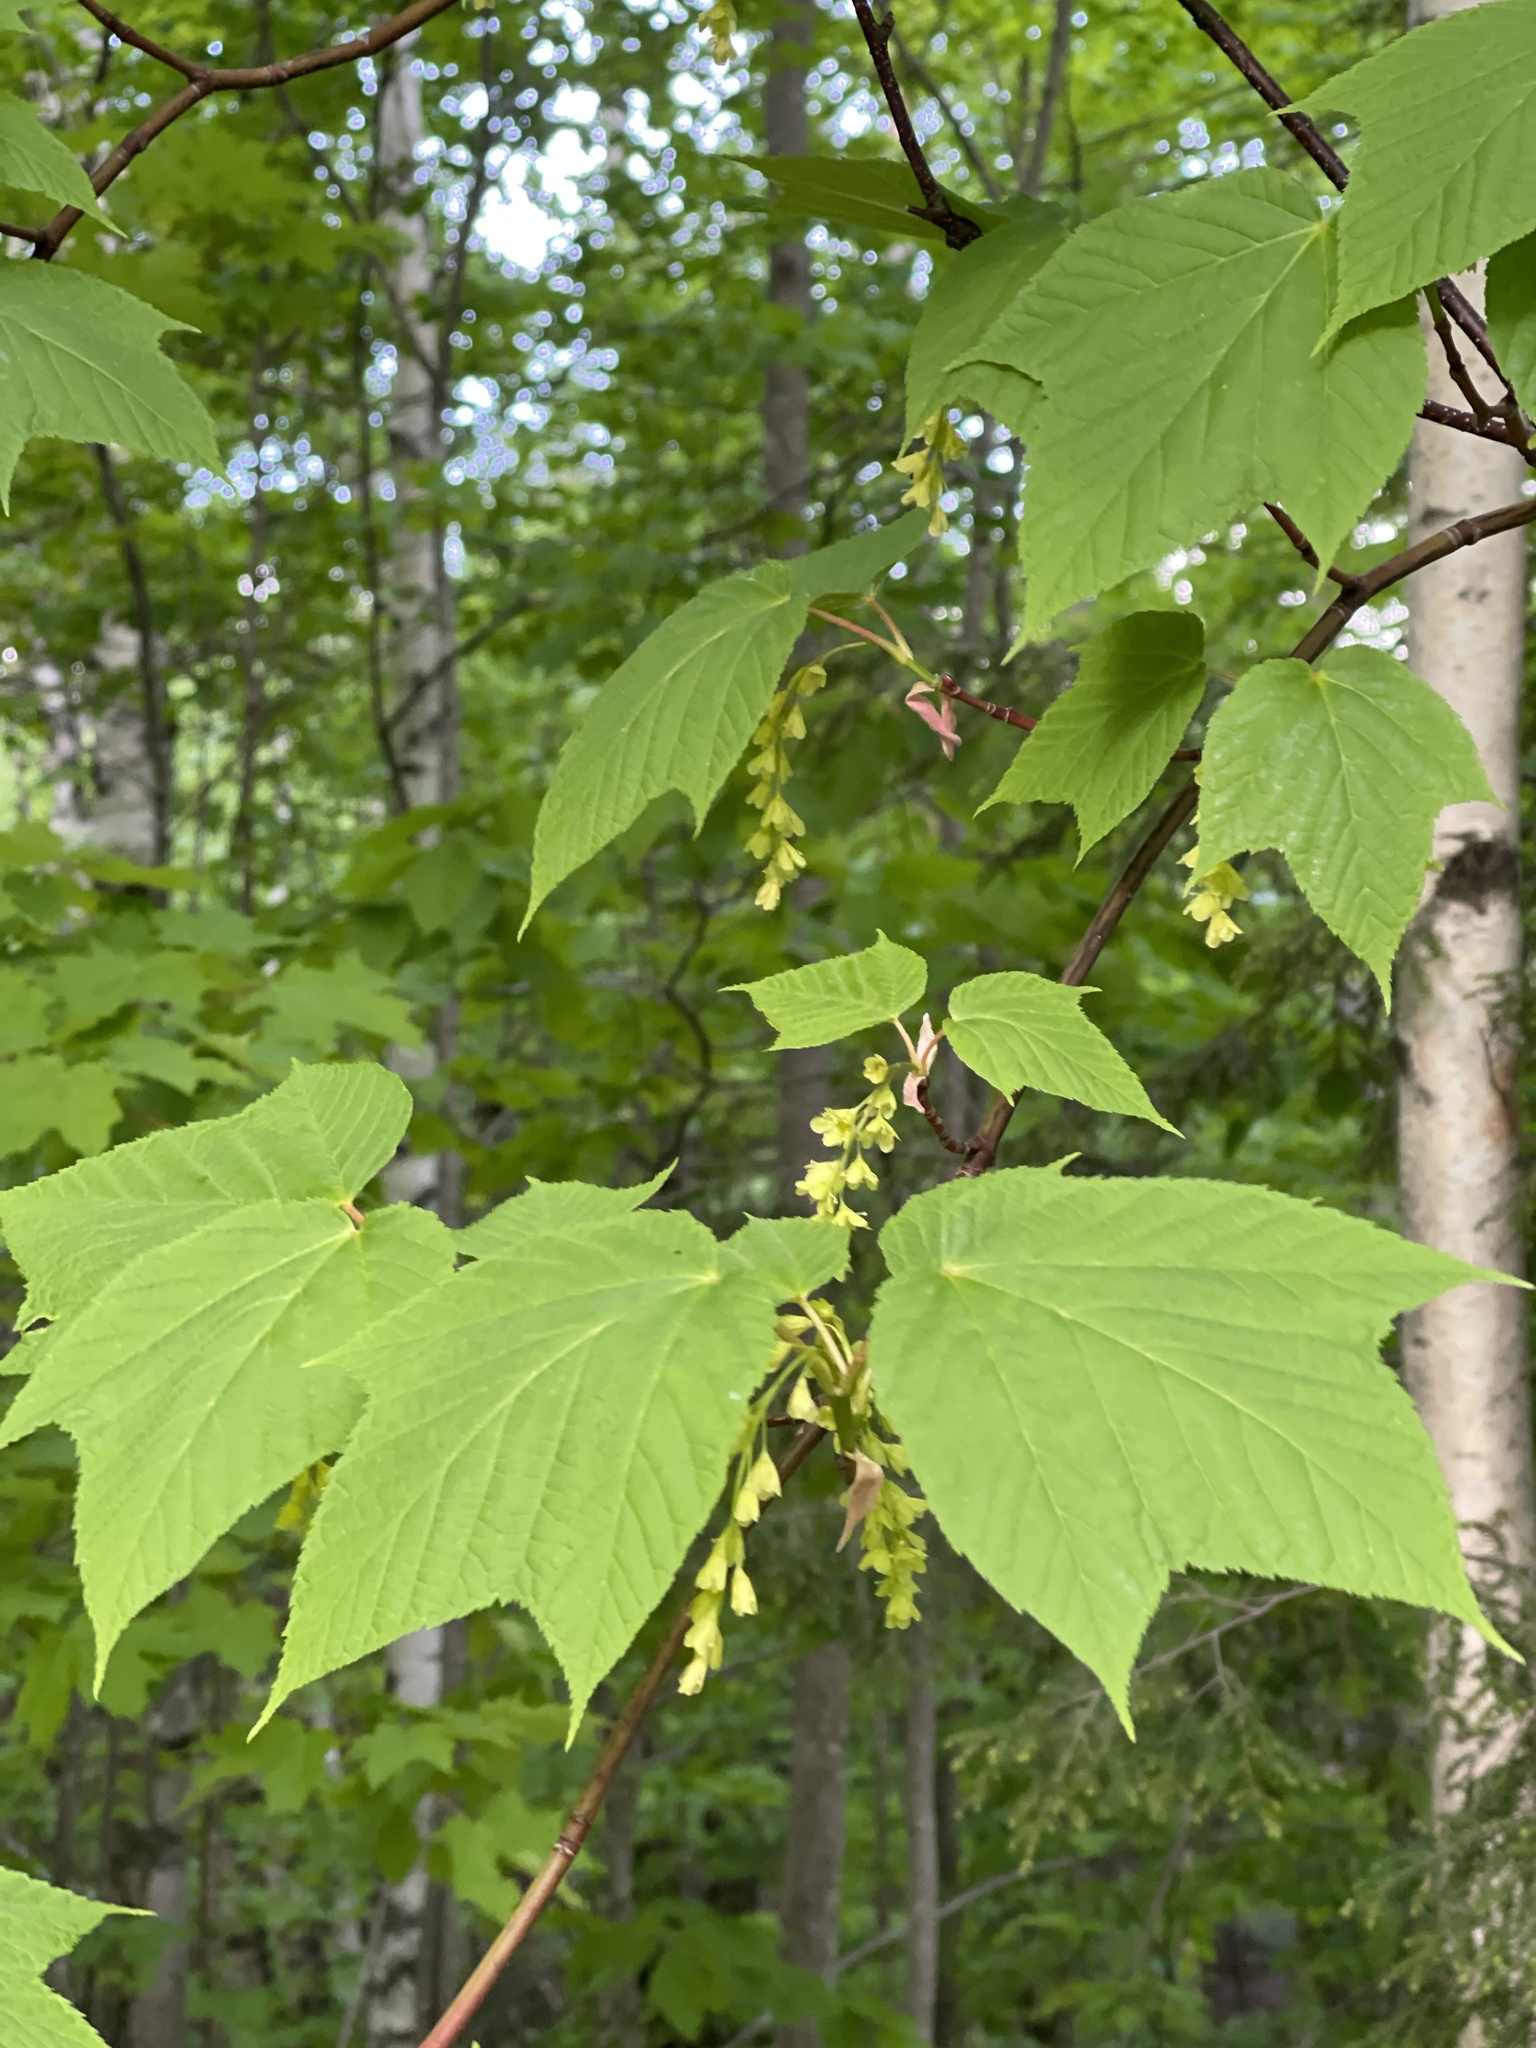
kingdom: Plantae
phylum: Tracheophyta
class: Magnoliopsida
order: Sapindales
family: Sapindaceae
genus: Acer
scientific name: Acer pensylvanicum
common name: Moosewood
